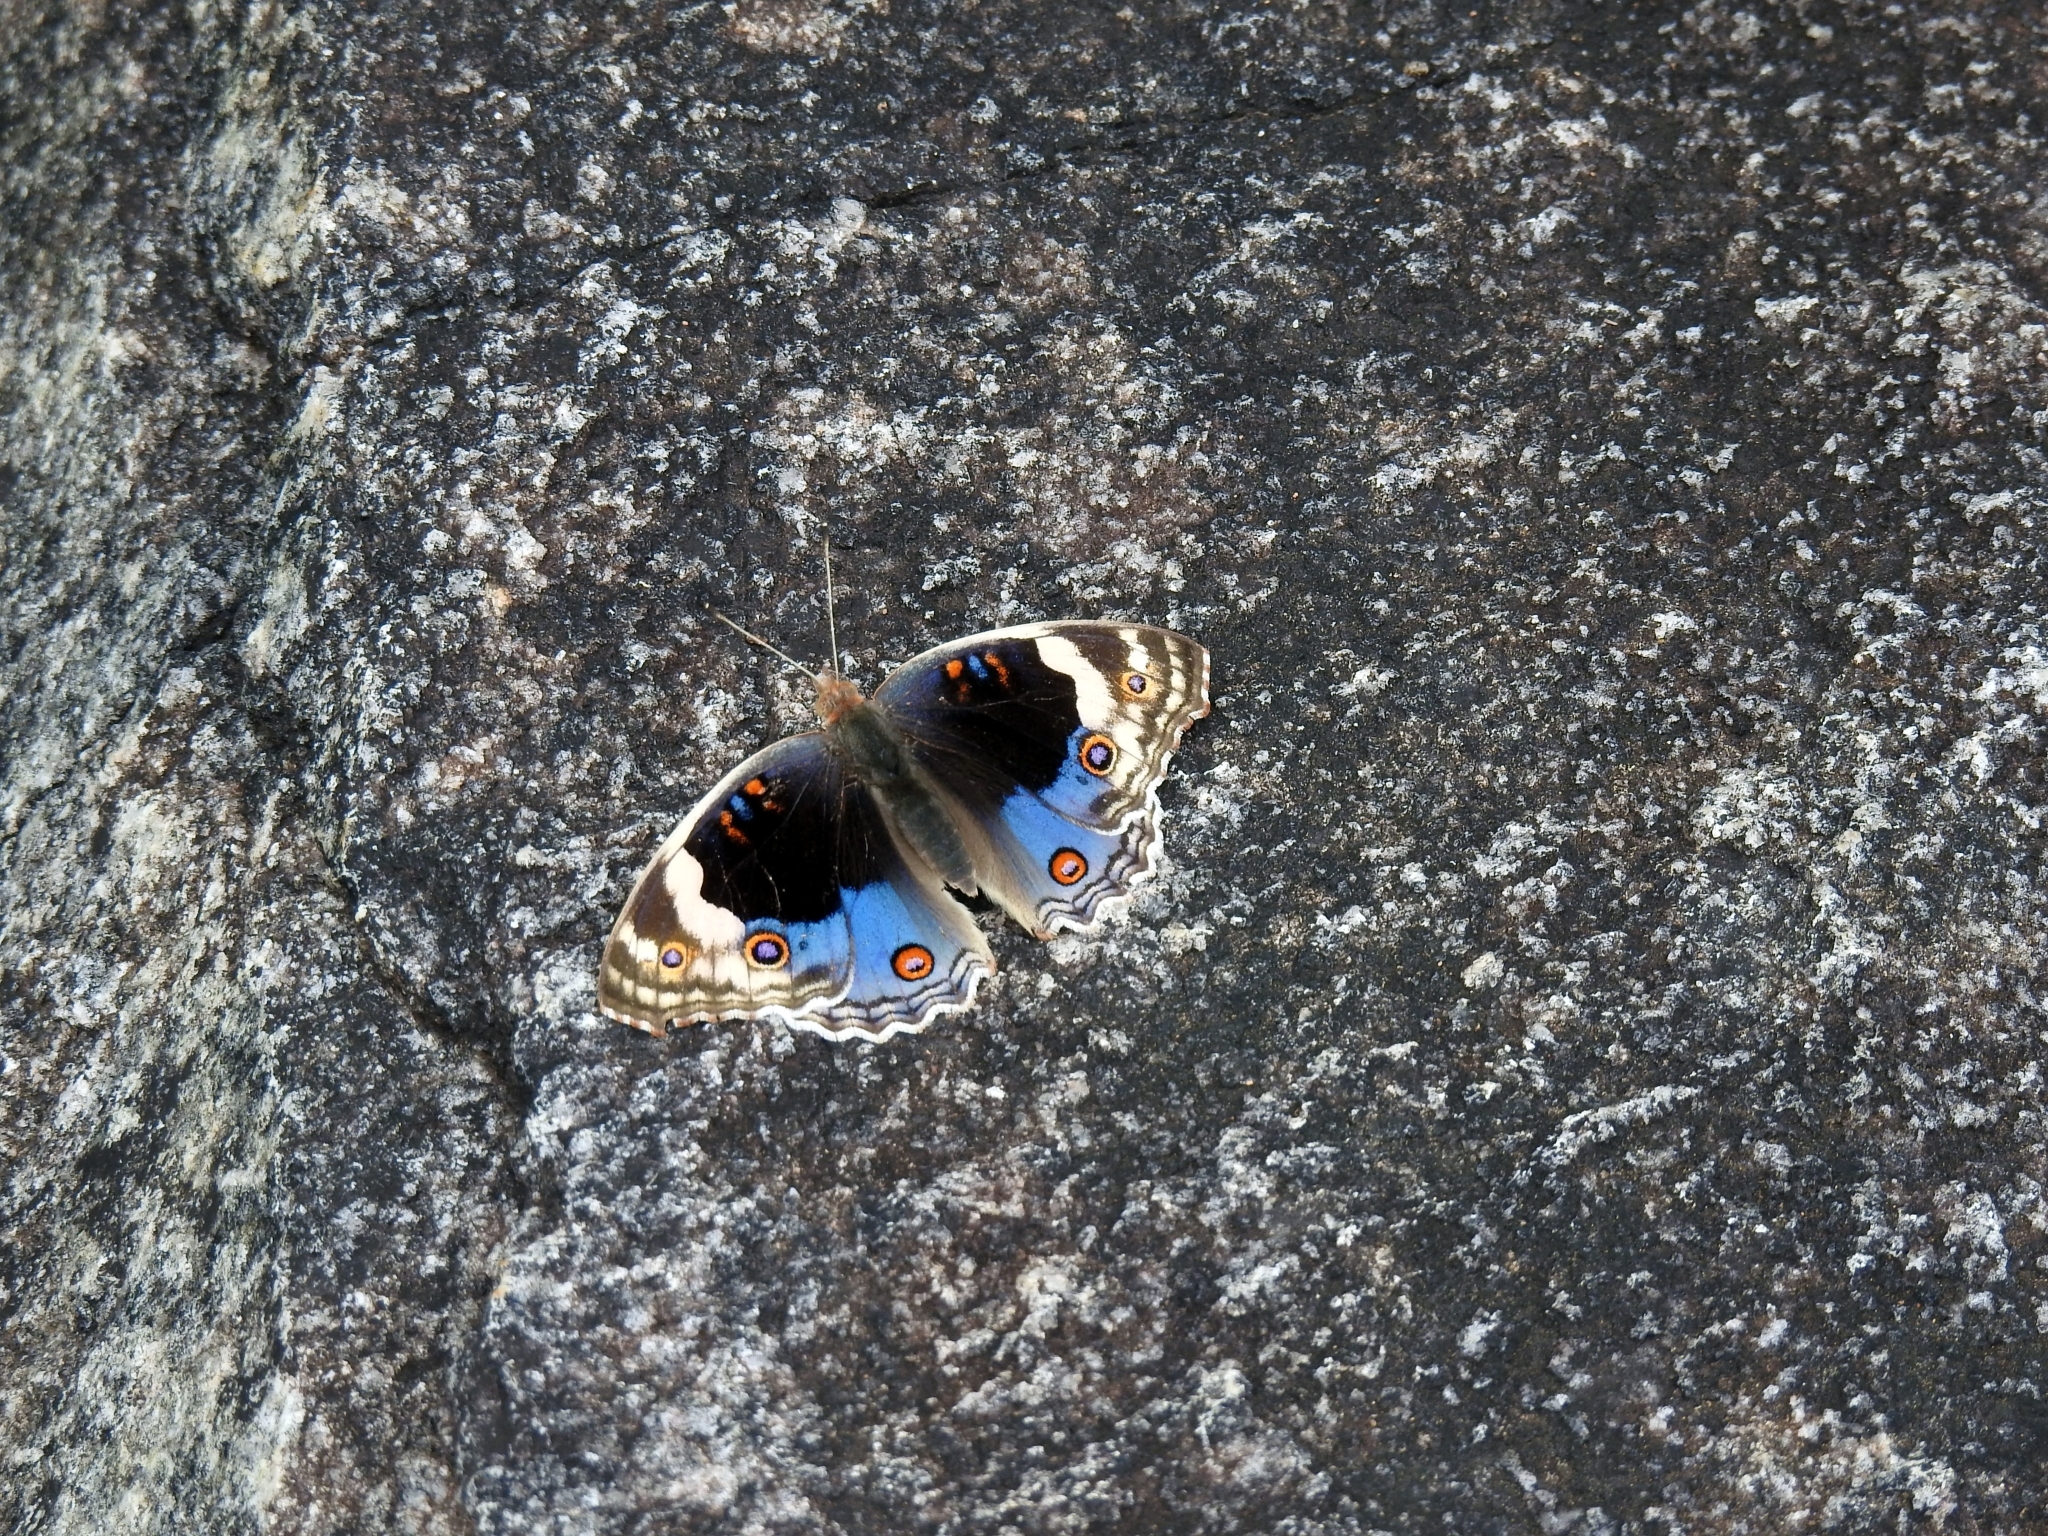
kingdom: Animalia
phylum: Arthropoda
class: Insecta
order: Lepidoptera
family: Nymphalidae
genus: Junonia
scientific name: Junonia orithya
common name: Blue pansy
